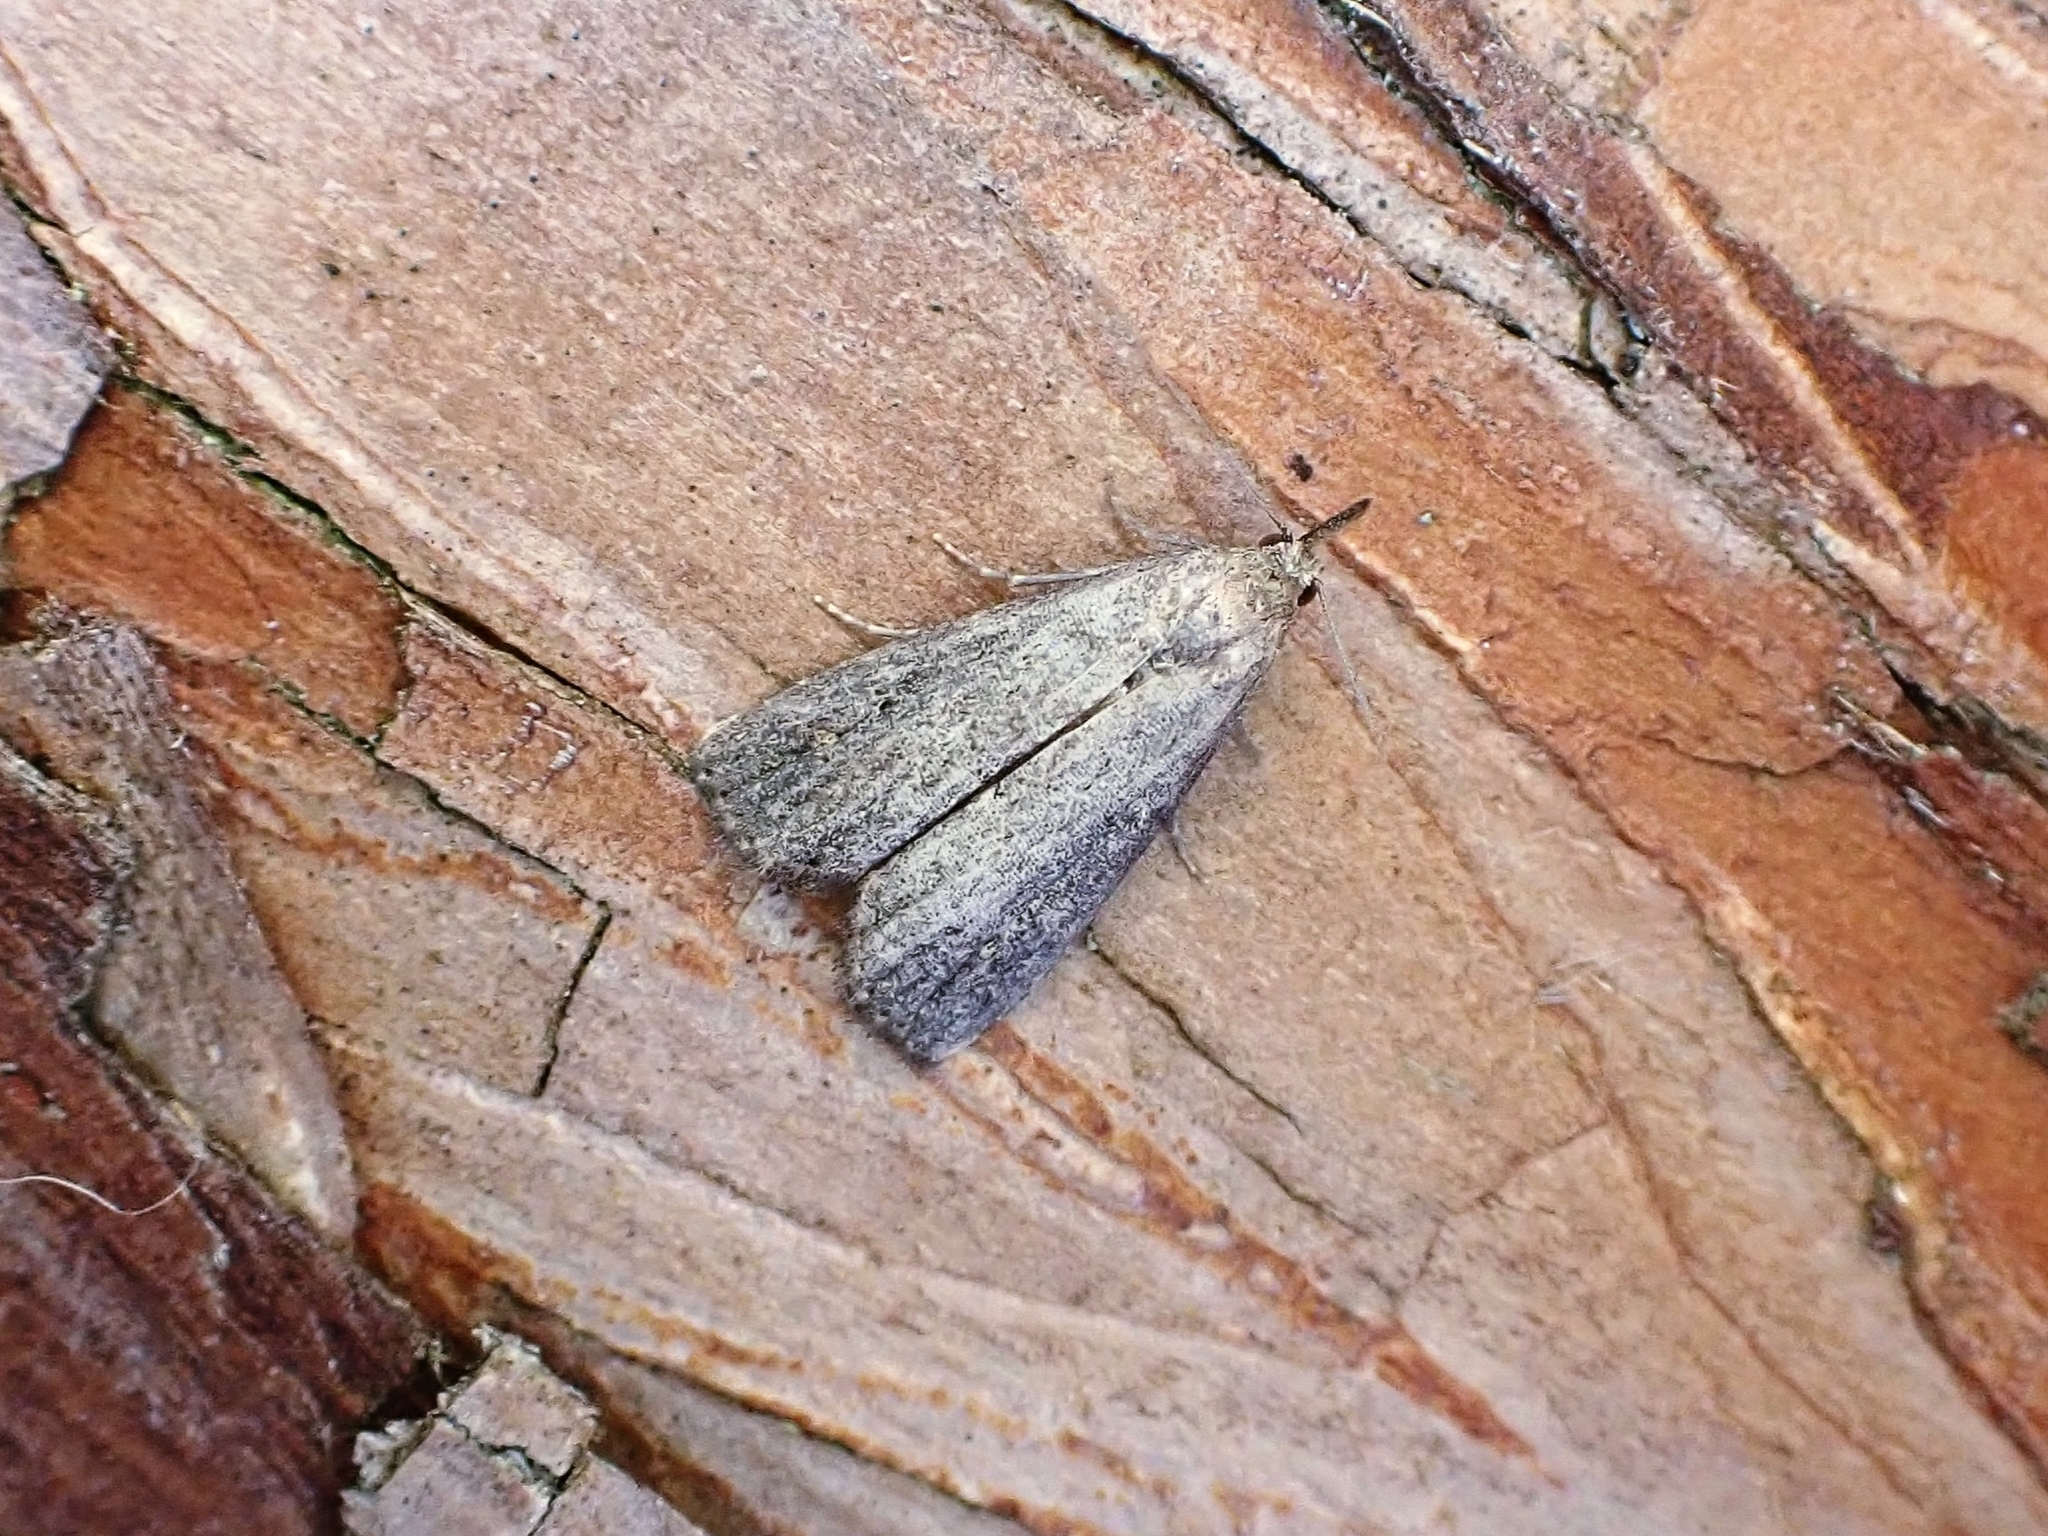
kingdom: Animalia
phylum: Arthropoda
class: Insecta
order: Lepidoptera
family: Erebidae
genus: Schrankia
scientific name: Schrankia costaestrigalis
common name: Pinion-streaked snout
